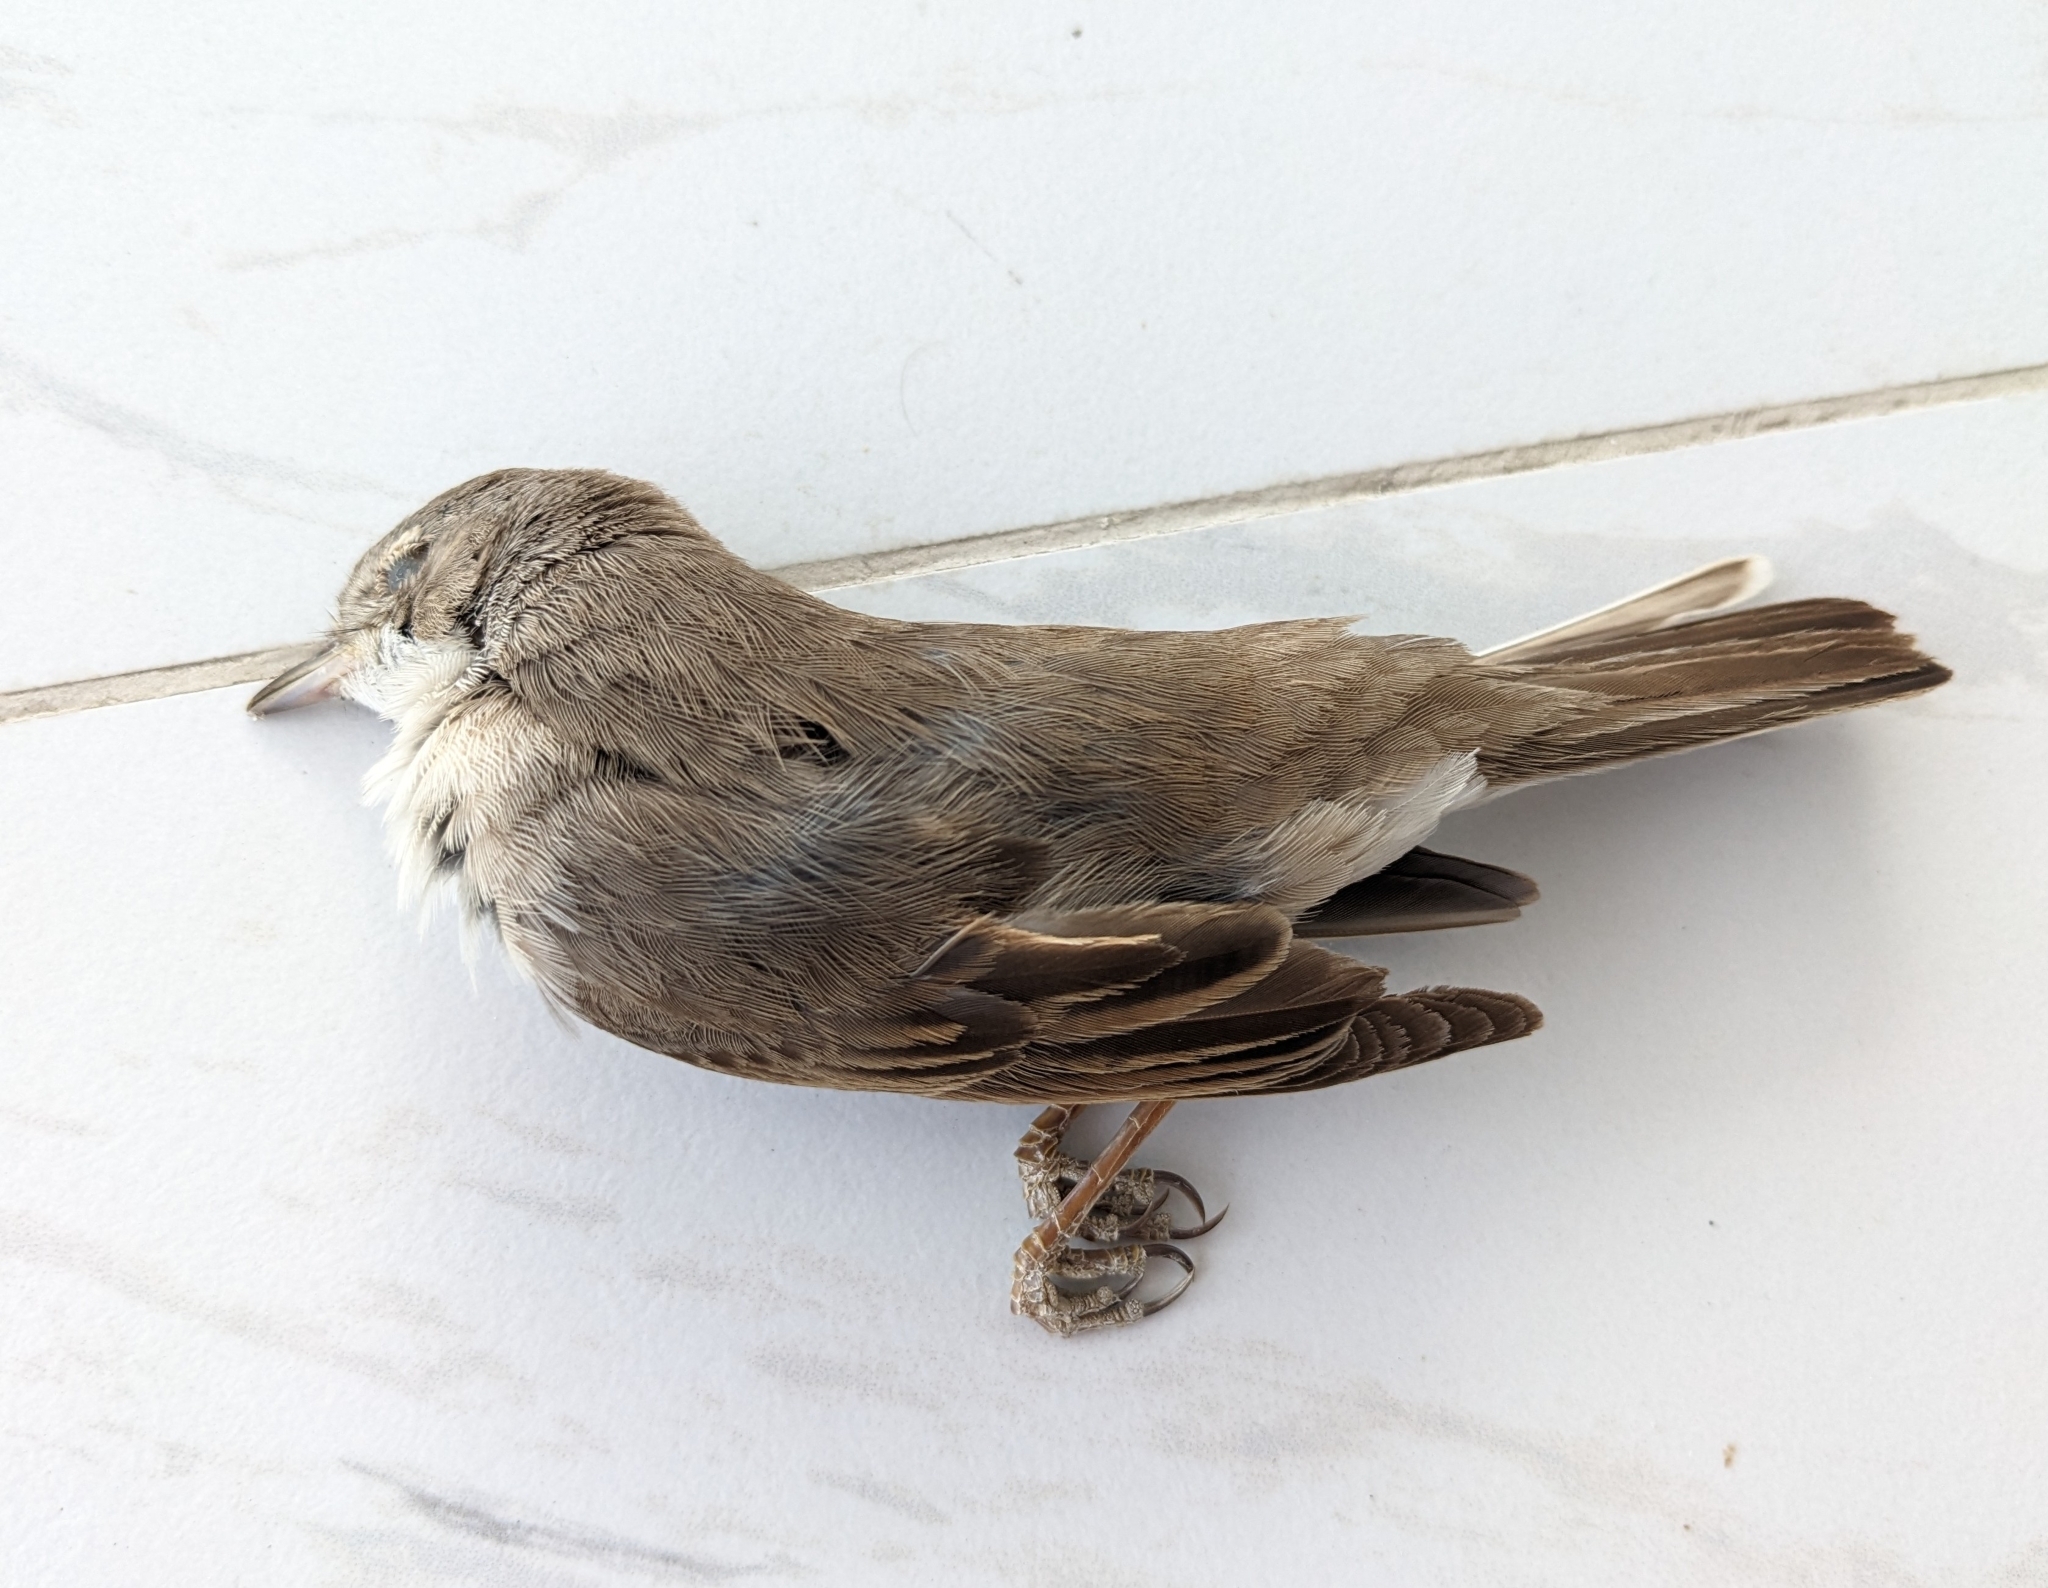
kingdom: Animalia
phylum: Chordata
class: Aves
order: Passeriformes
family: Sylviidae
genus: Sylvia
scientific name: Sylvia communis
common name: Common whitethroat
